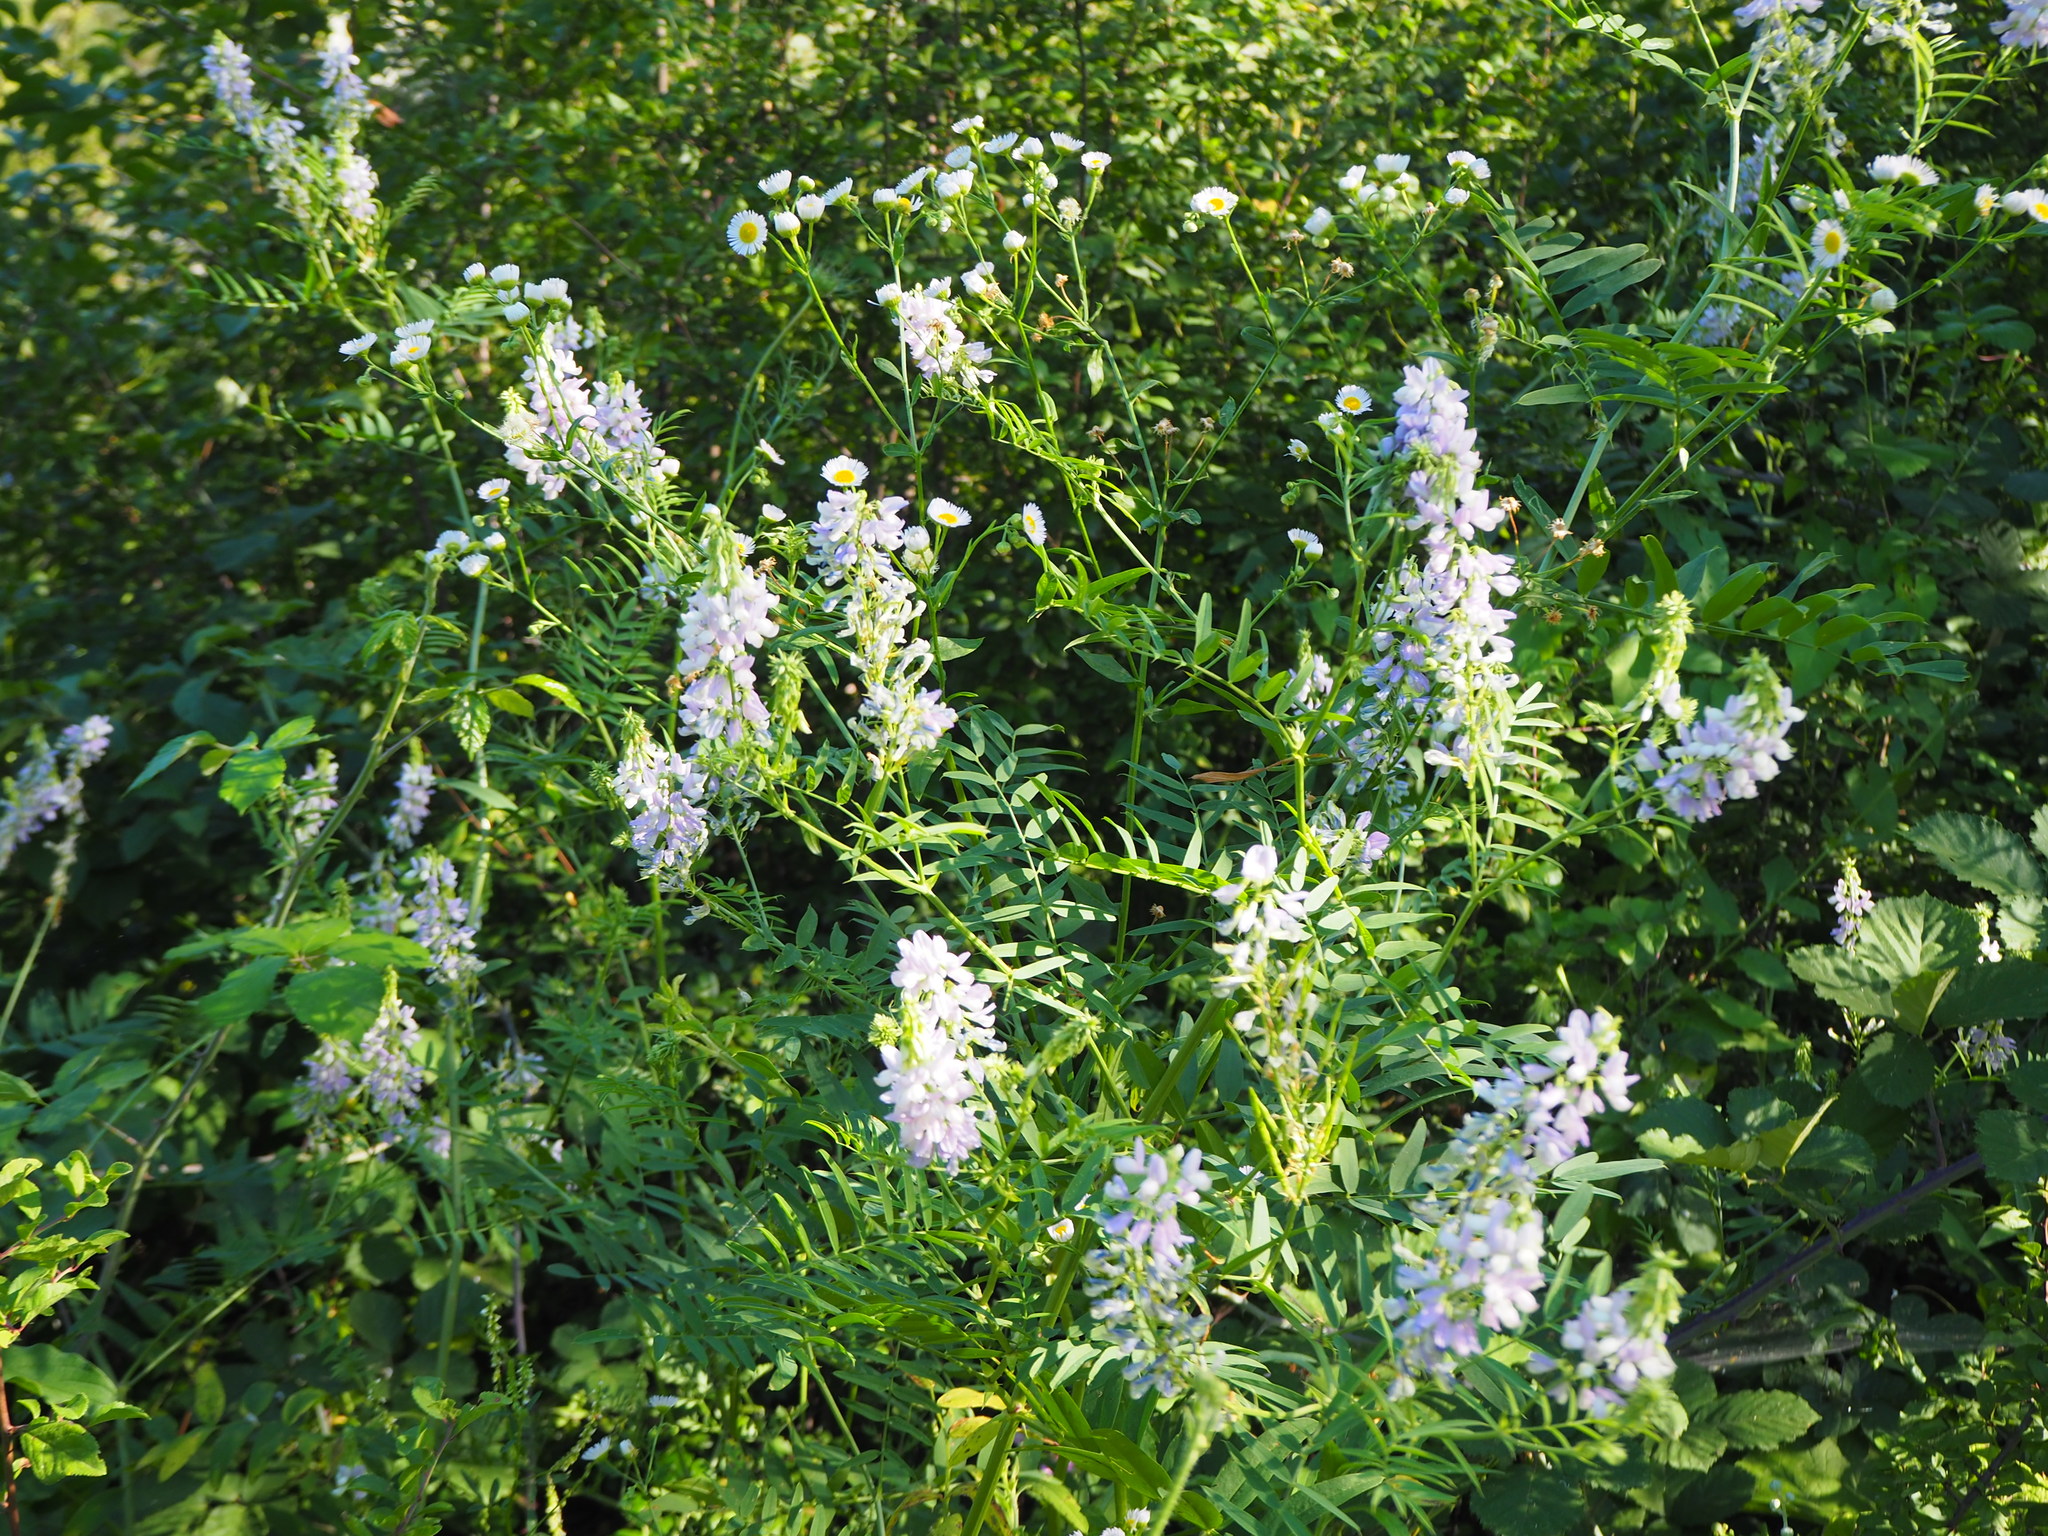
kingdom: Plantae
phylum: Tracheophyta
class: Magnoliopsida
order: Fabales
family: Fabaceae
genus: Galega
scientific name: Galega officinalis
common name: Goat's-rue
